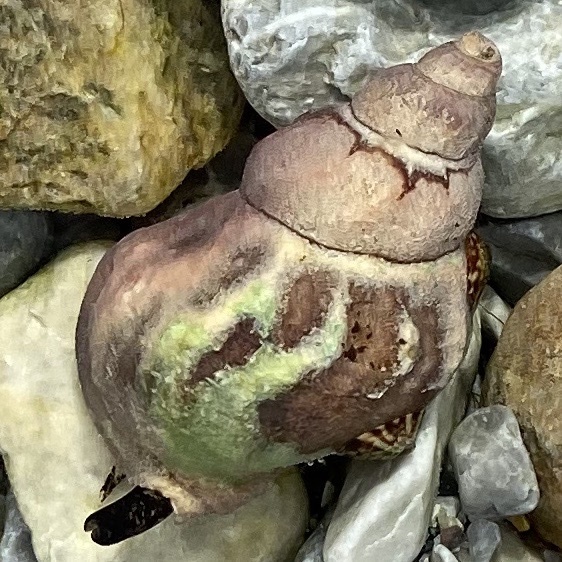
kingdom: Animalia
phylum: Mollusca
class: Gastropoda
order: Neogastropoda
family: Buccinidae
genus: Buccinum
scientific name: Buccinum undatum
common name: Common whelk
